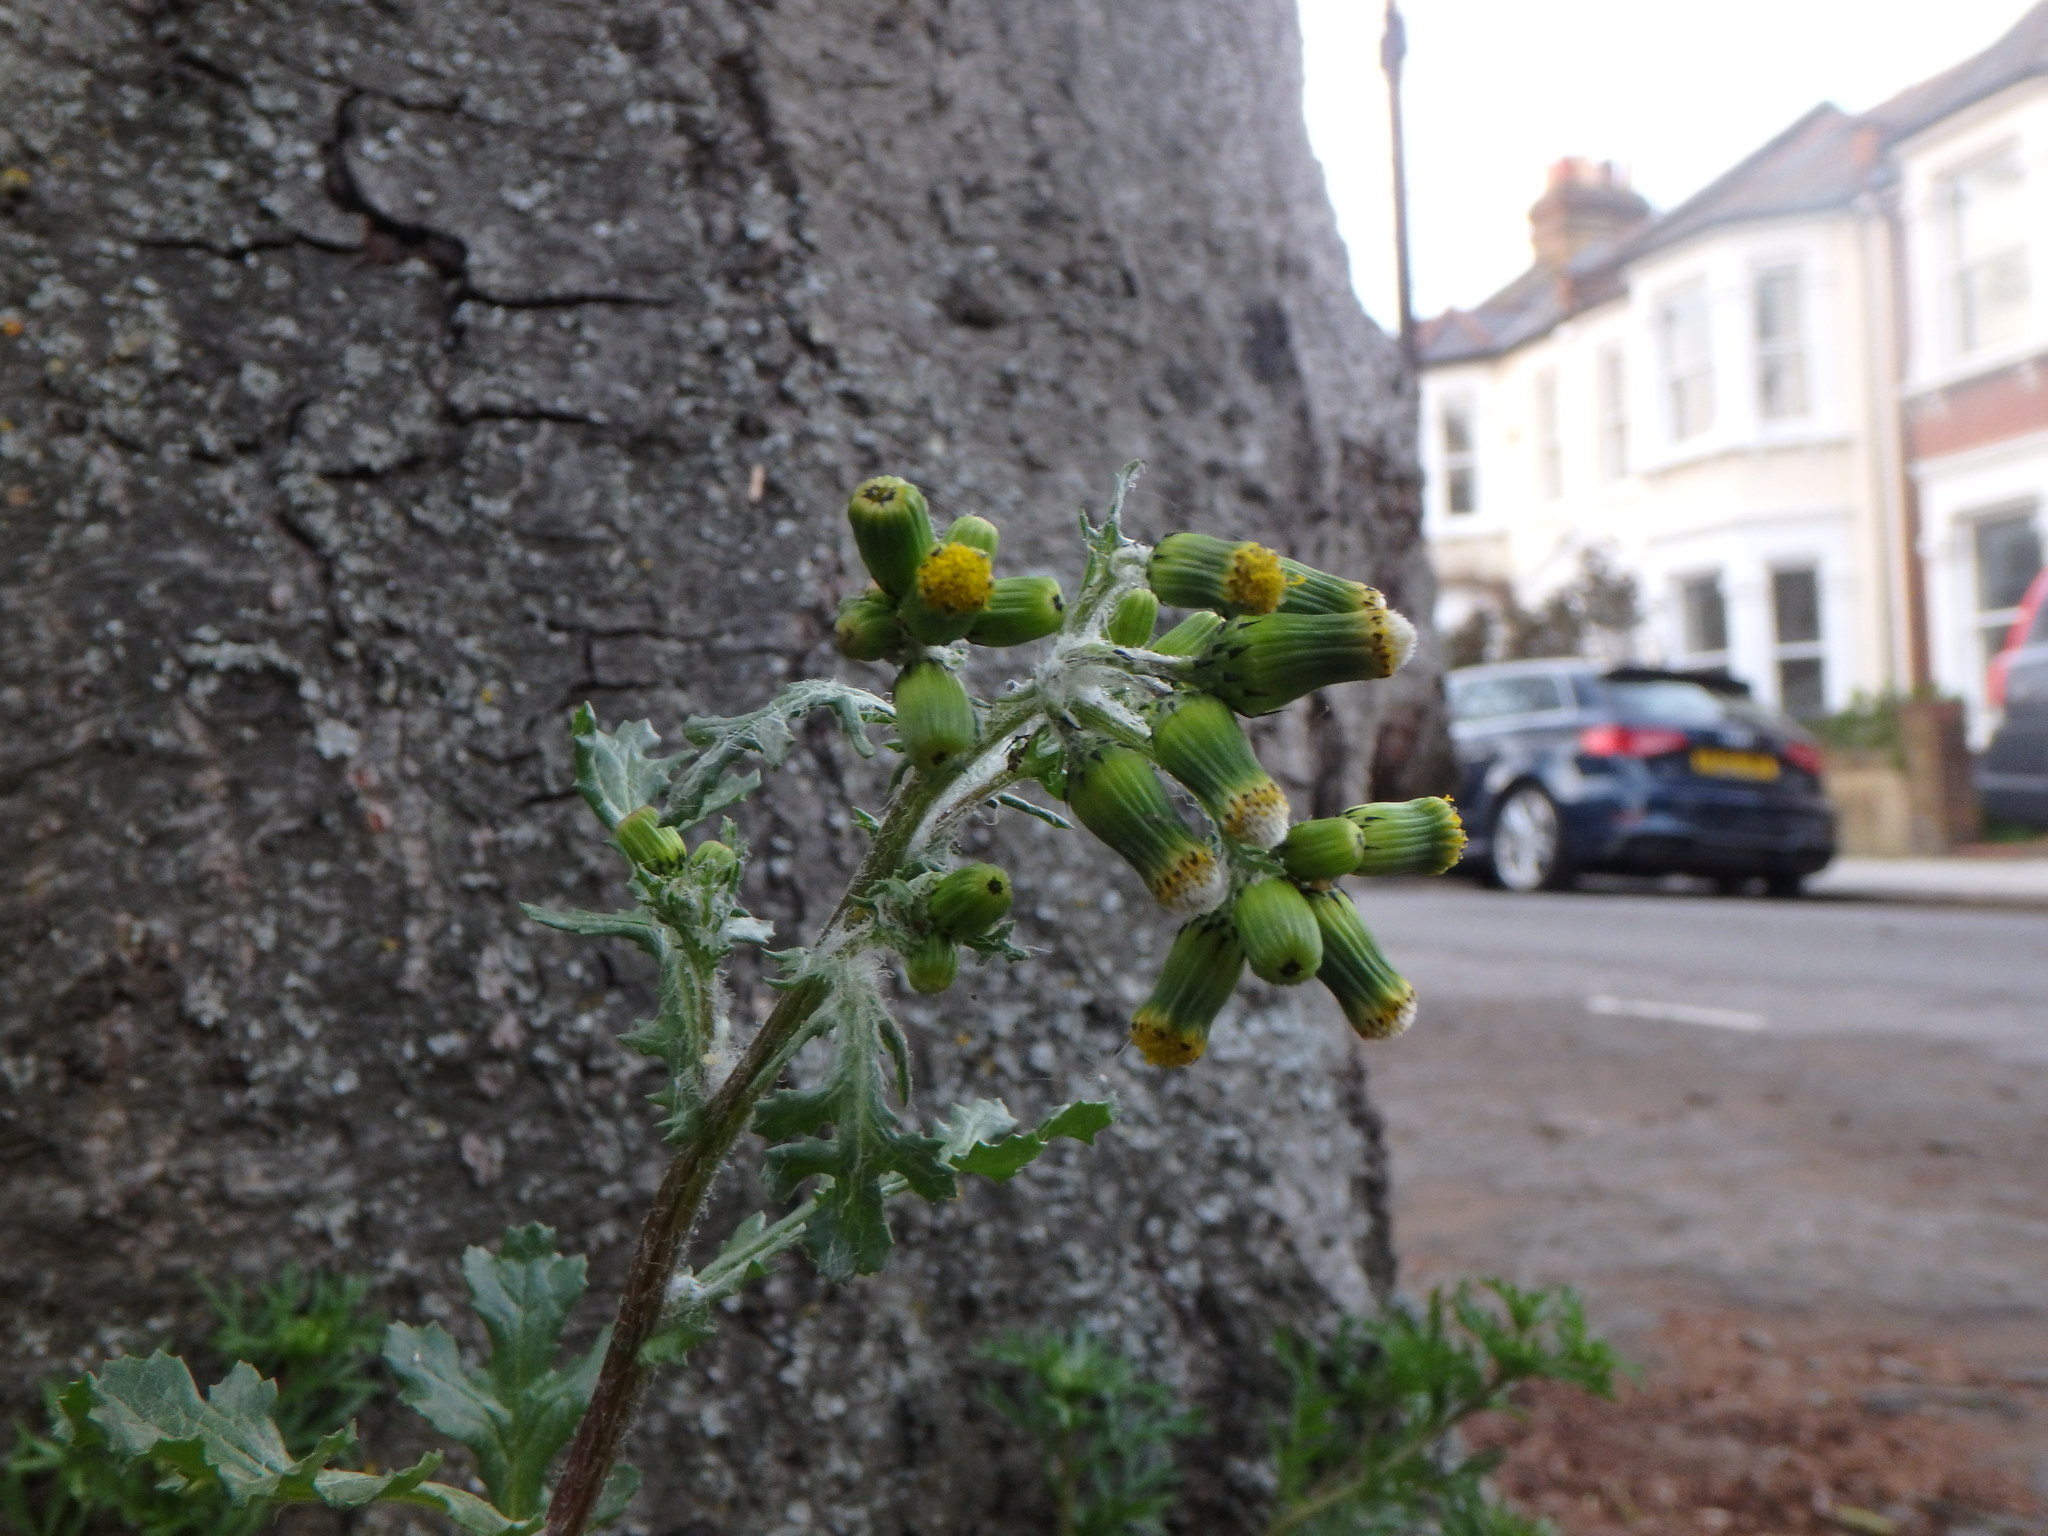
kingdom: Plantae
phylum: Tracheophyta
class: Magnoliopsida
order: Asterales
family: Asteraceae
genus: Senecio
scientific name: Senecio vulgaris
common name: Old-man-in-the-spring
